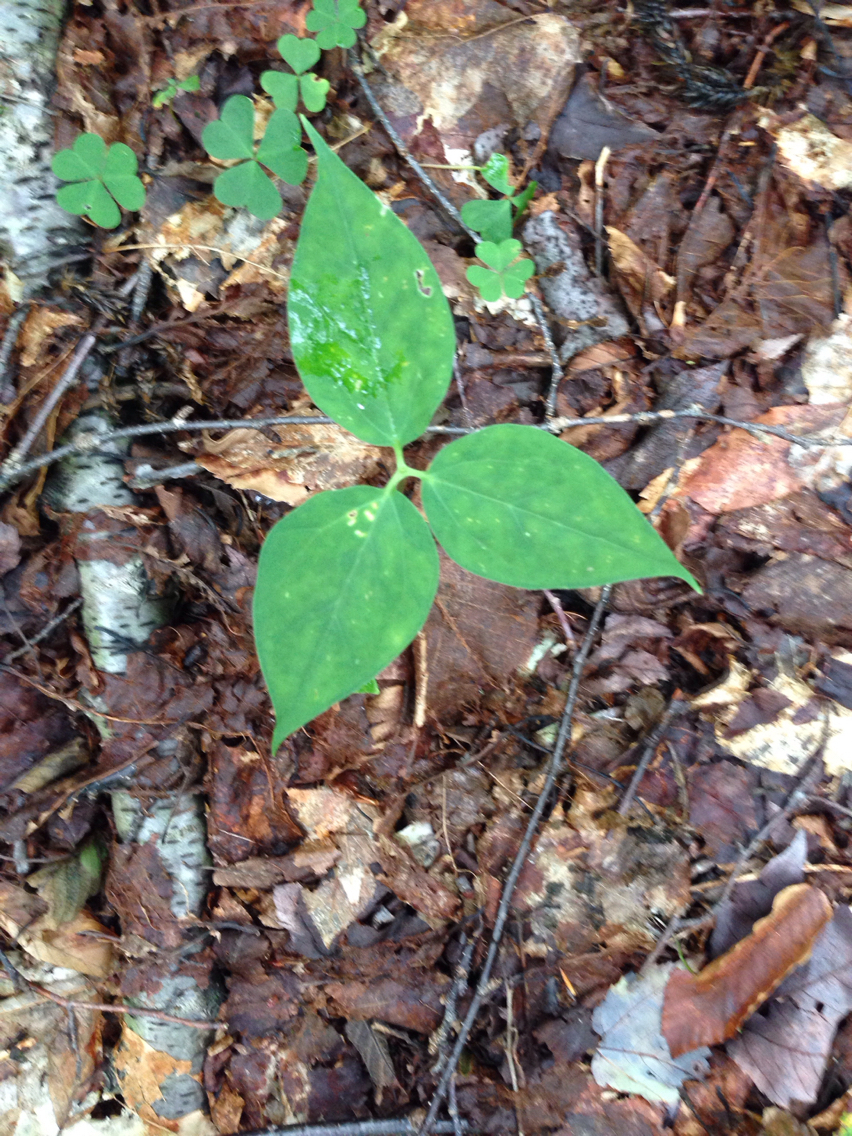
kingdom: Plantae
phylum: Tracheophyta
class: Liliopsida
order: Liliales
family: Melanthiaceae
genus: Trillium
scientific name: Trillium undulatum
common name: Paint trillium
